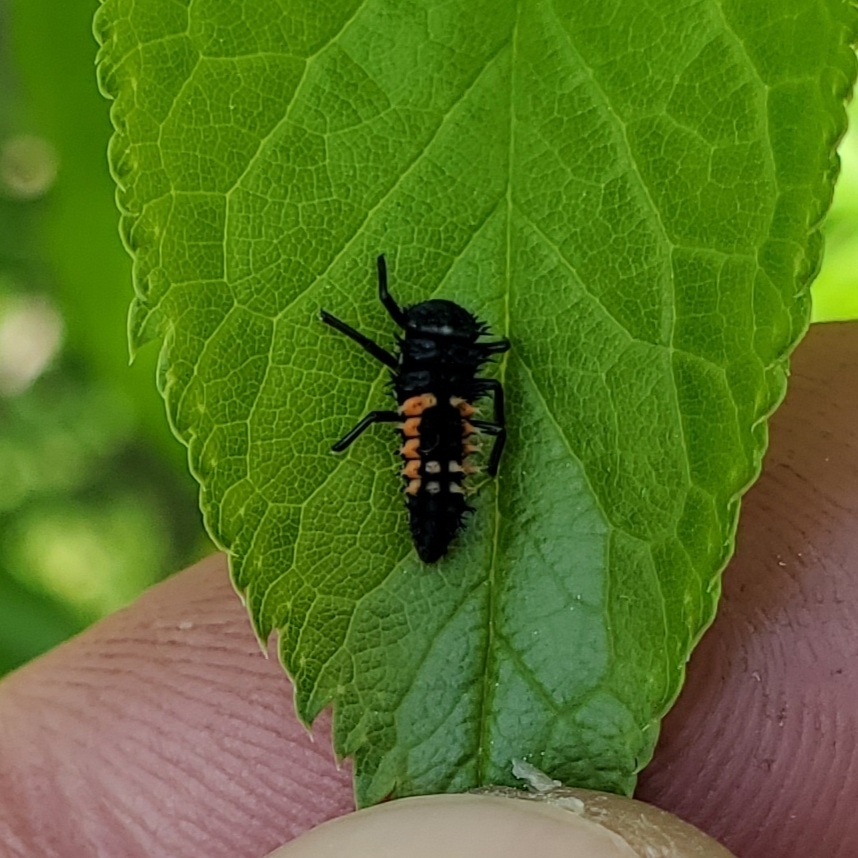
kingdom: Animalia
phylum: Arthropoda
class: Insecta
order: Coleoptera
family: Coccinellidae
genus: Harmonia
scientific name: Harmonia axyridis
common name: Harlequin ladybird
